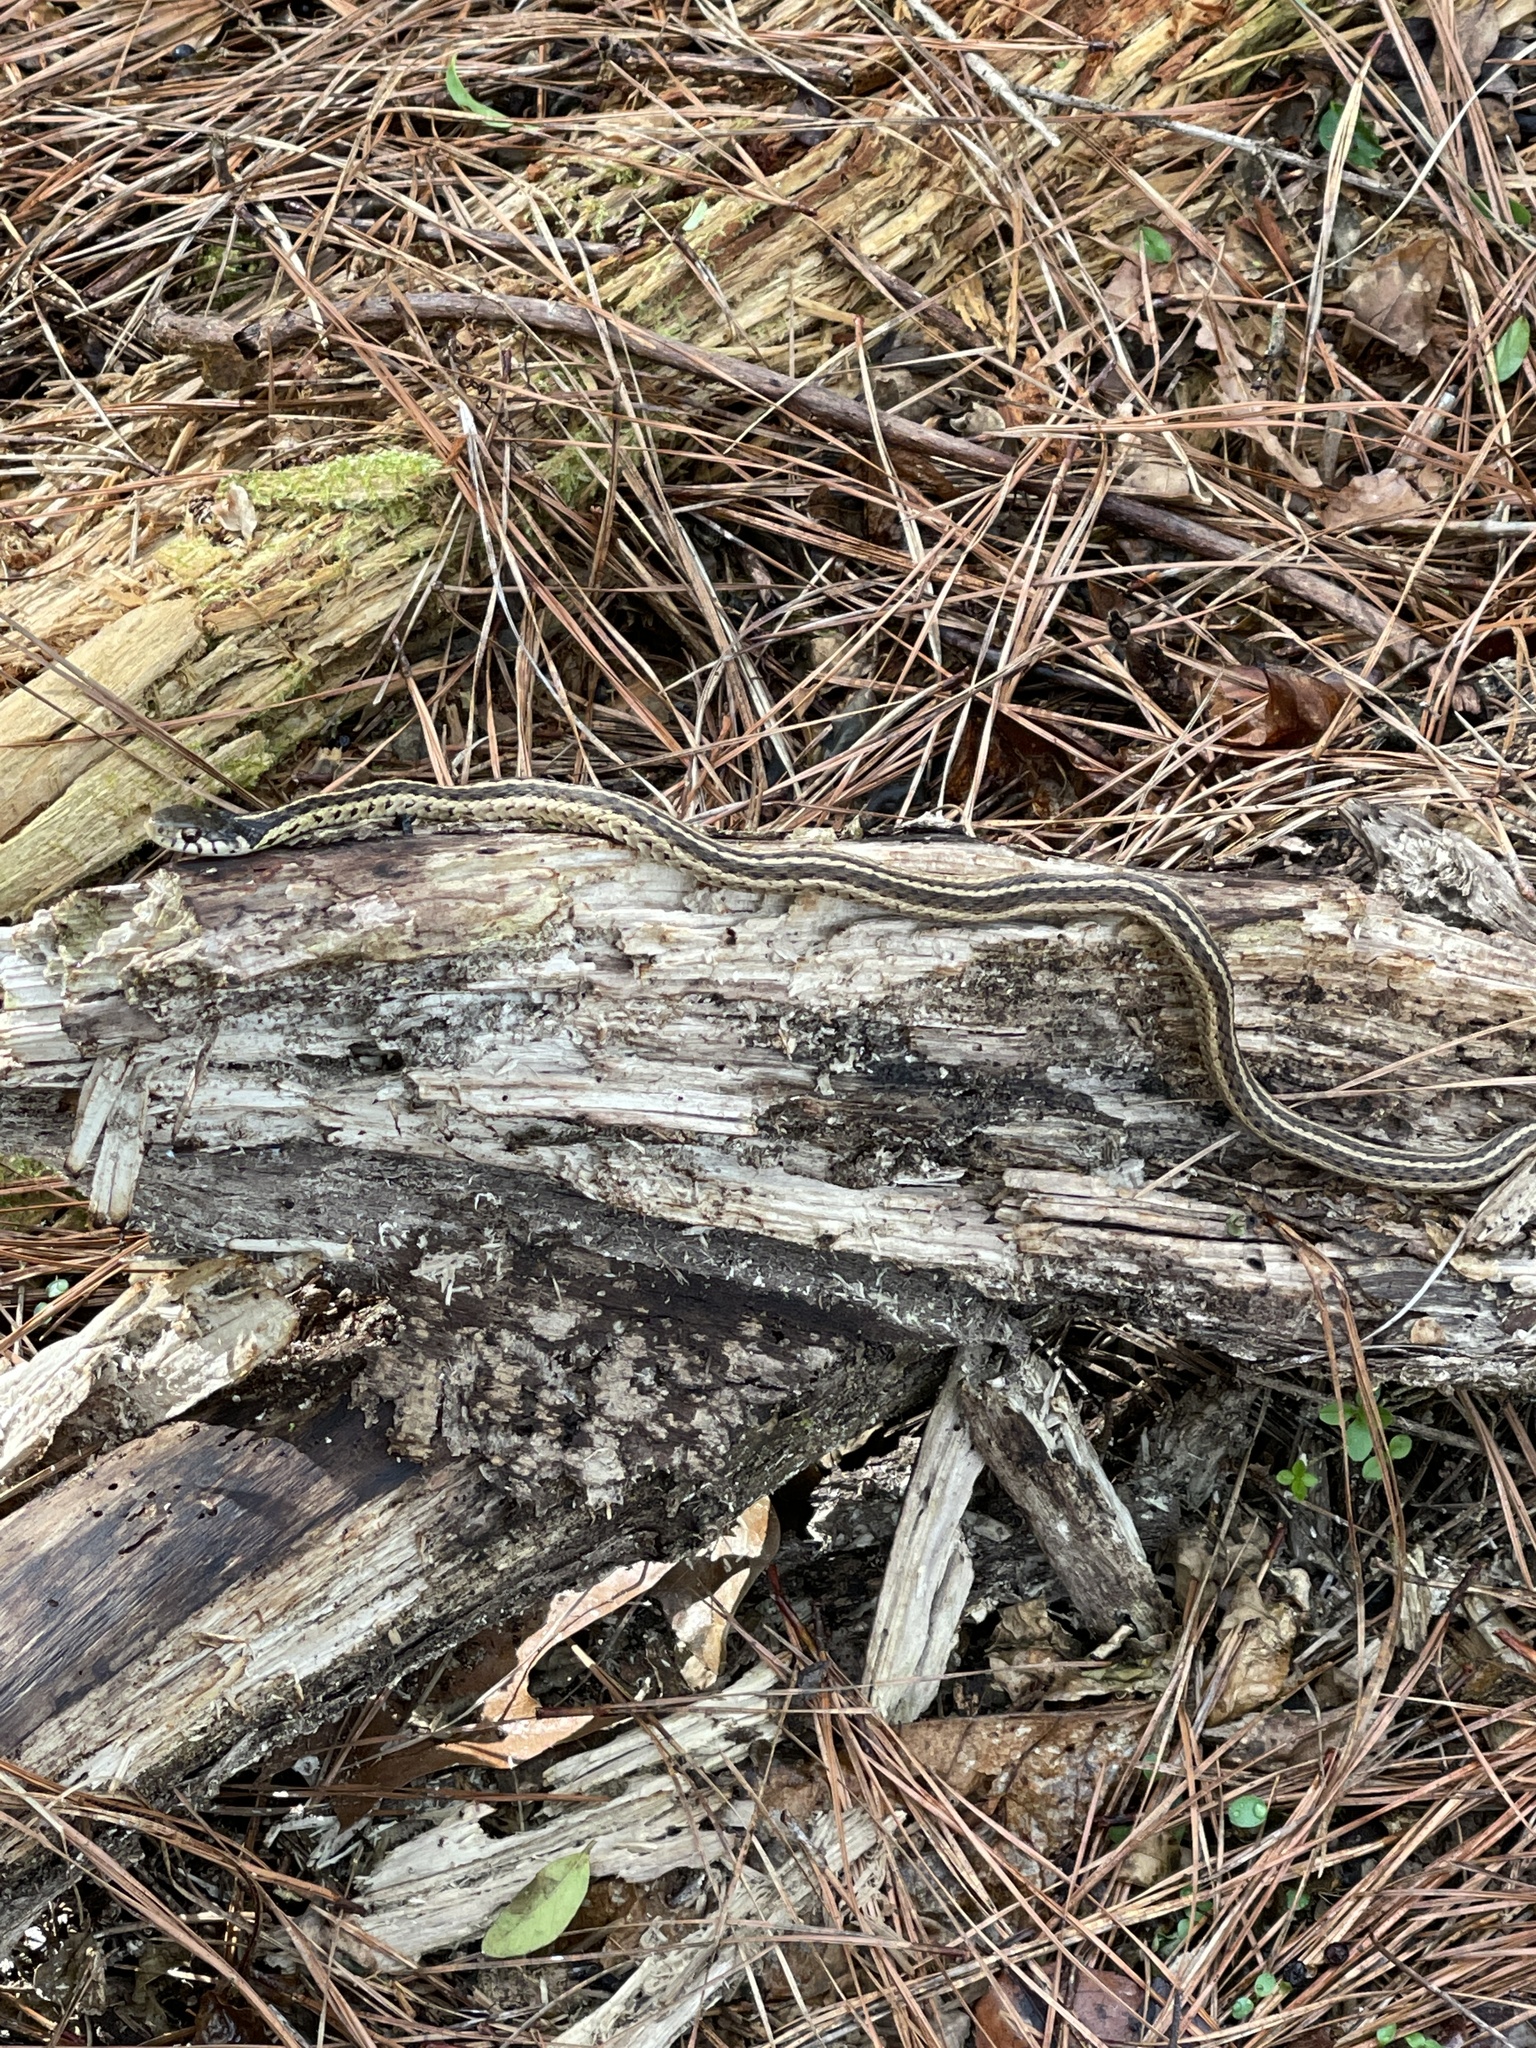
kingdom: Animalia
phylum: Chordata
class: Squamata
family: Colubridae
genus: Thamnophis
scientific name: Thamnophis sirtalis
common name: Common garter snake
